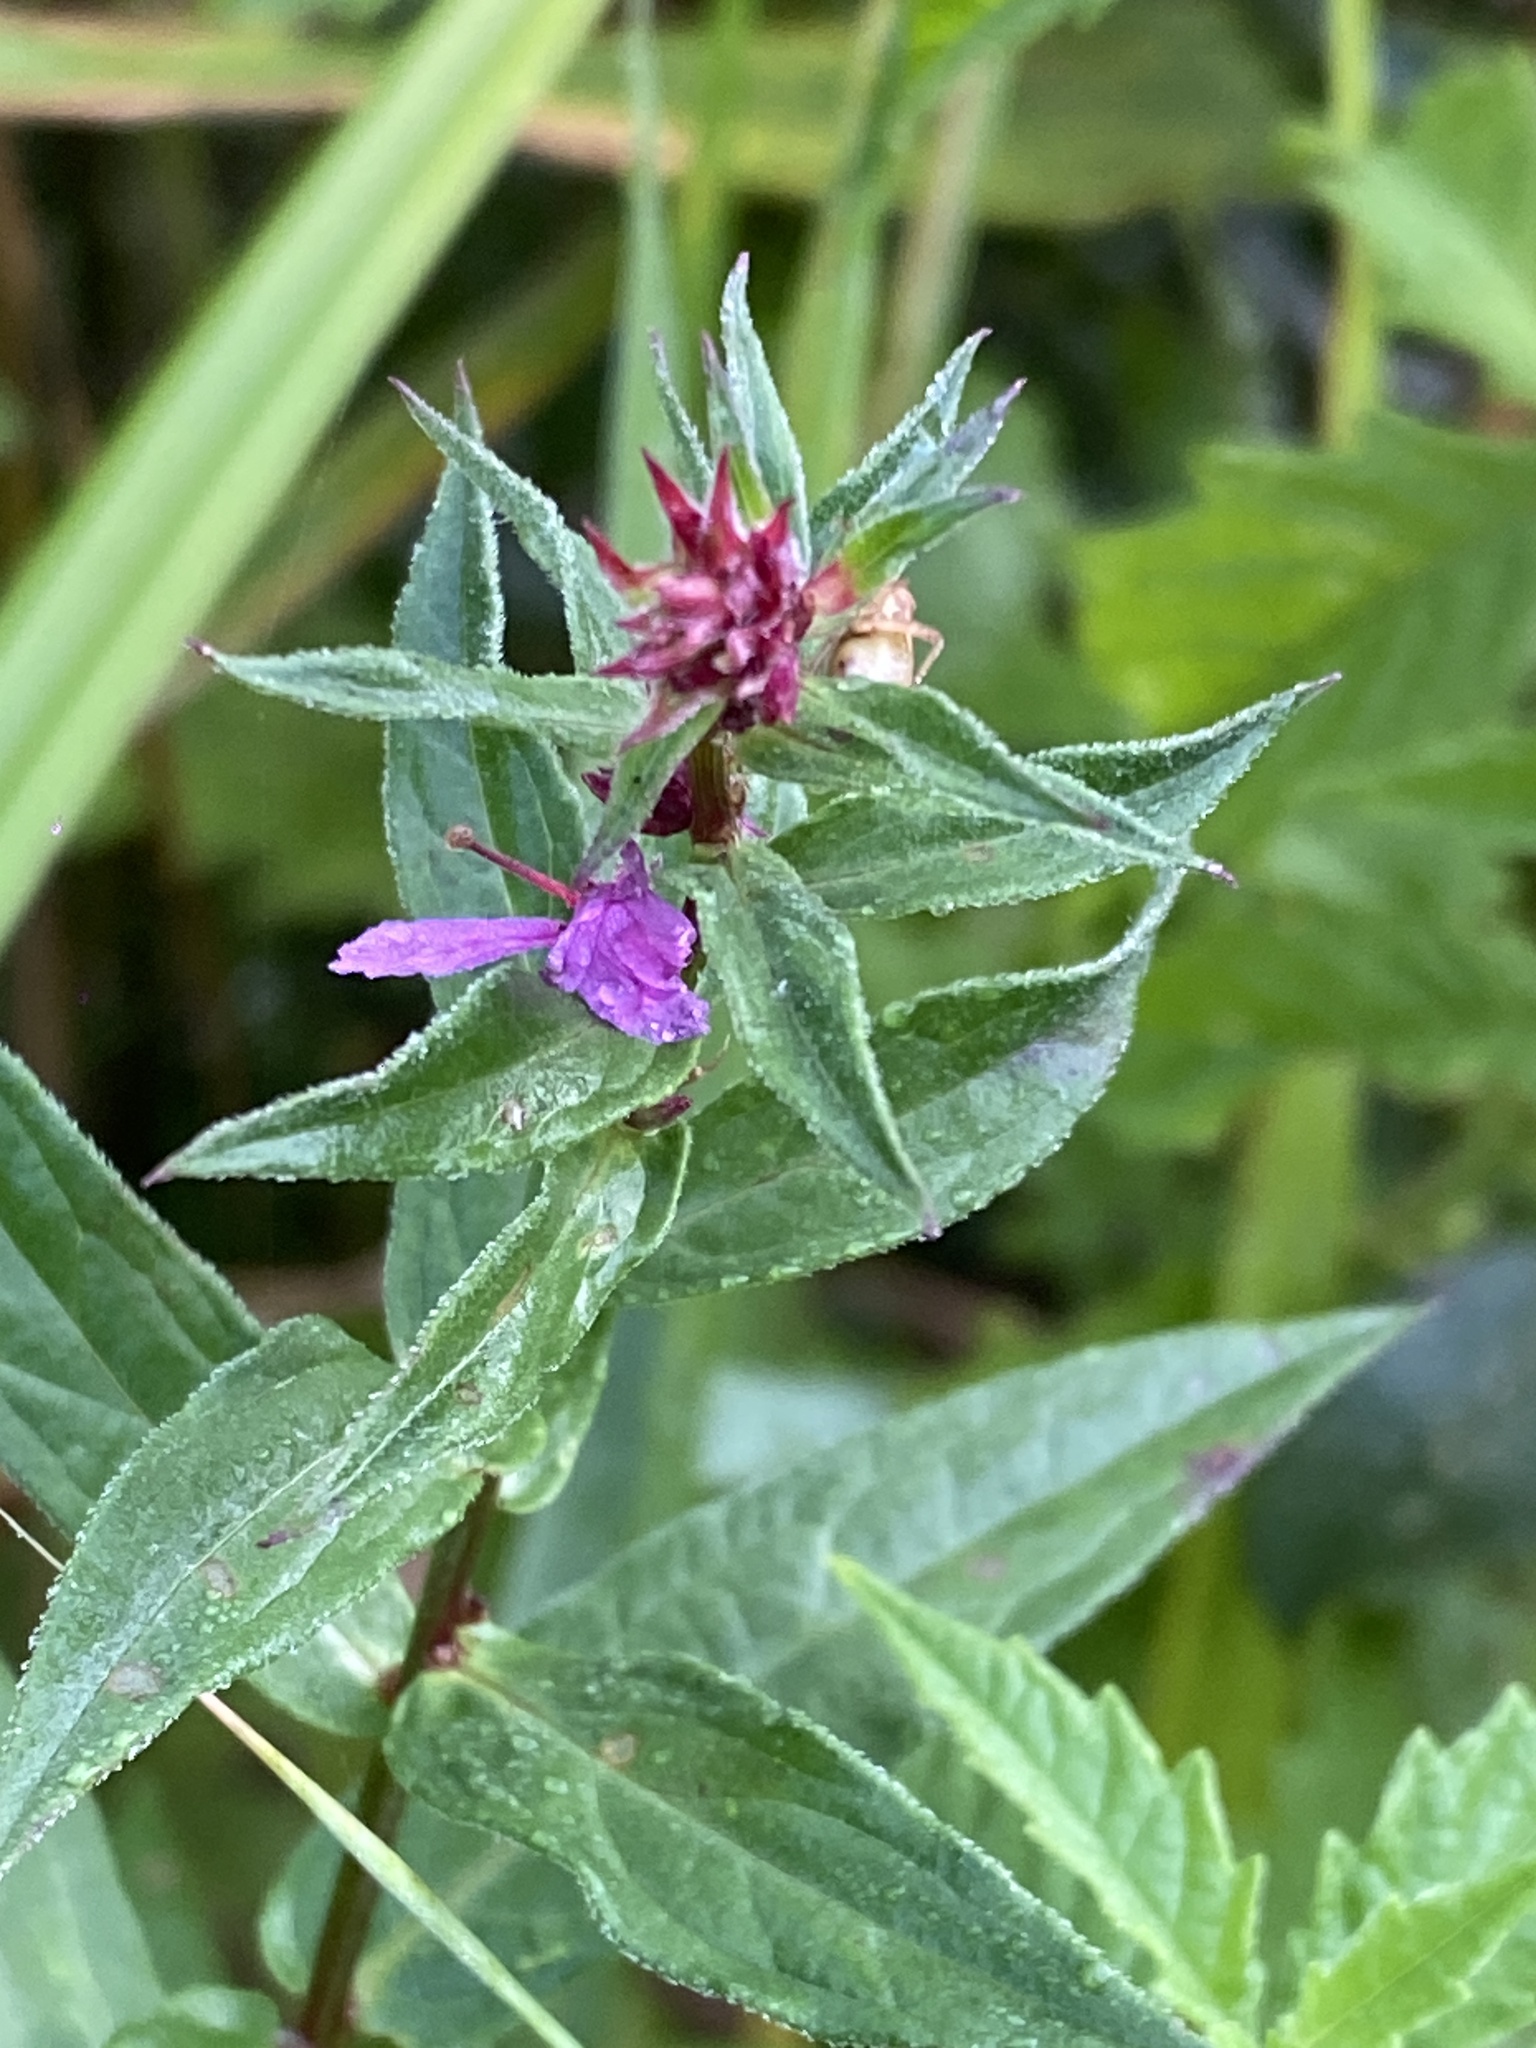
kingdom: Plantae
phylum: Tracheophyta
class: Magnoliopsida
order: Myrtales
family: Lythraceae
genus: Lythrum
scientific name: Lythrum salicaria
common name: Purple loosestrife
